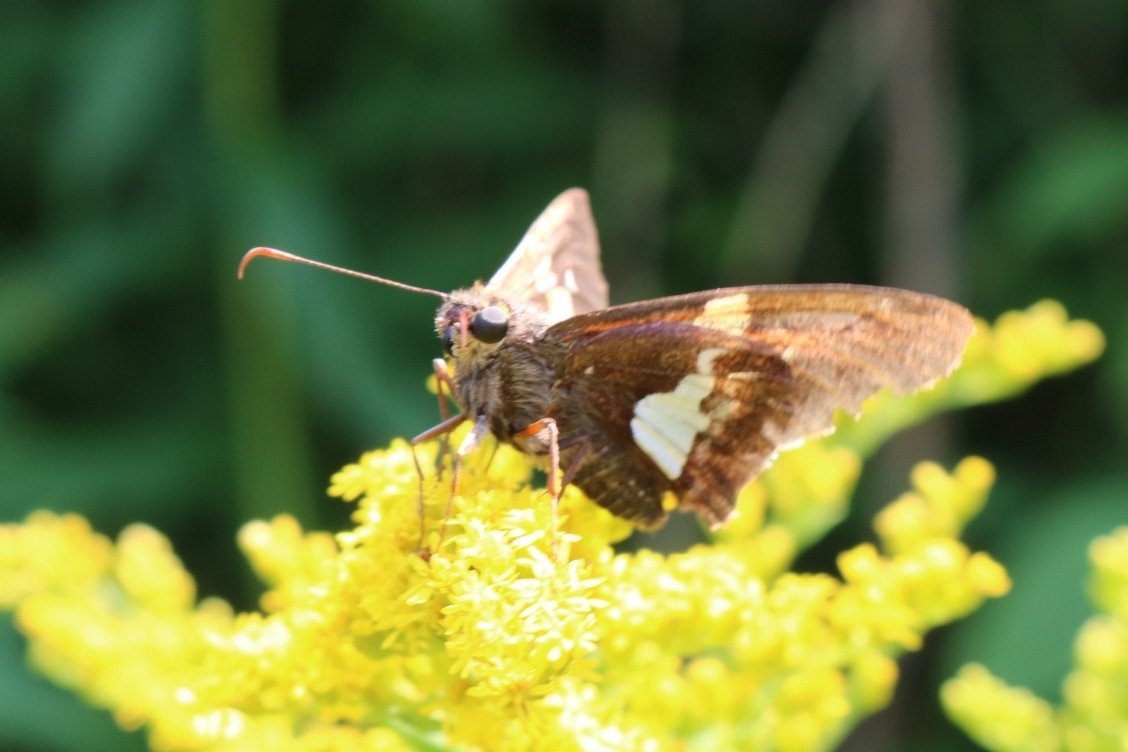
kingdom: Animalia
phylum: Arthropoda
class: Insecta
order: Lepidoptera
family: Hesperiidae
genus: Epargyreus
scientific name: Epargyreus clarus
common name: Silver-spotted skipper
